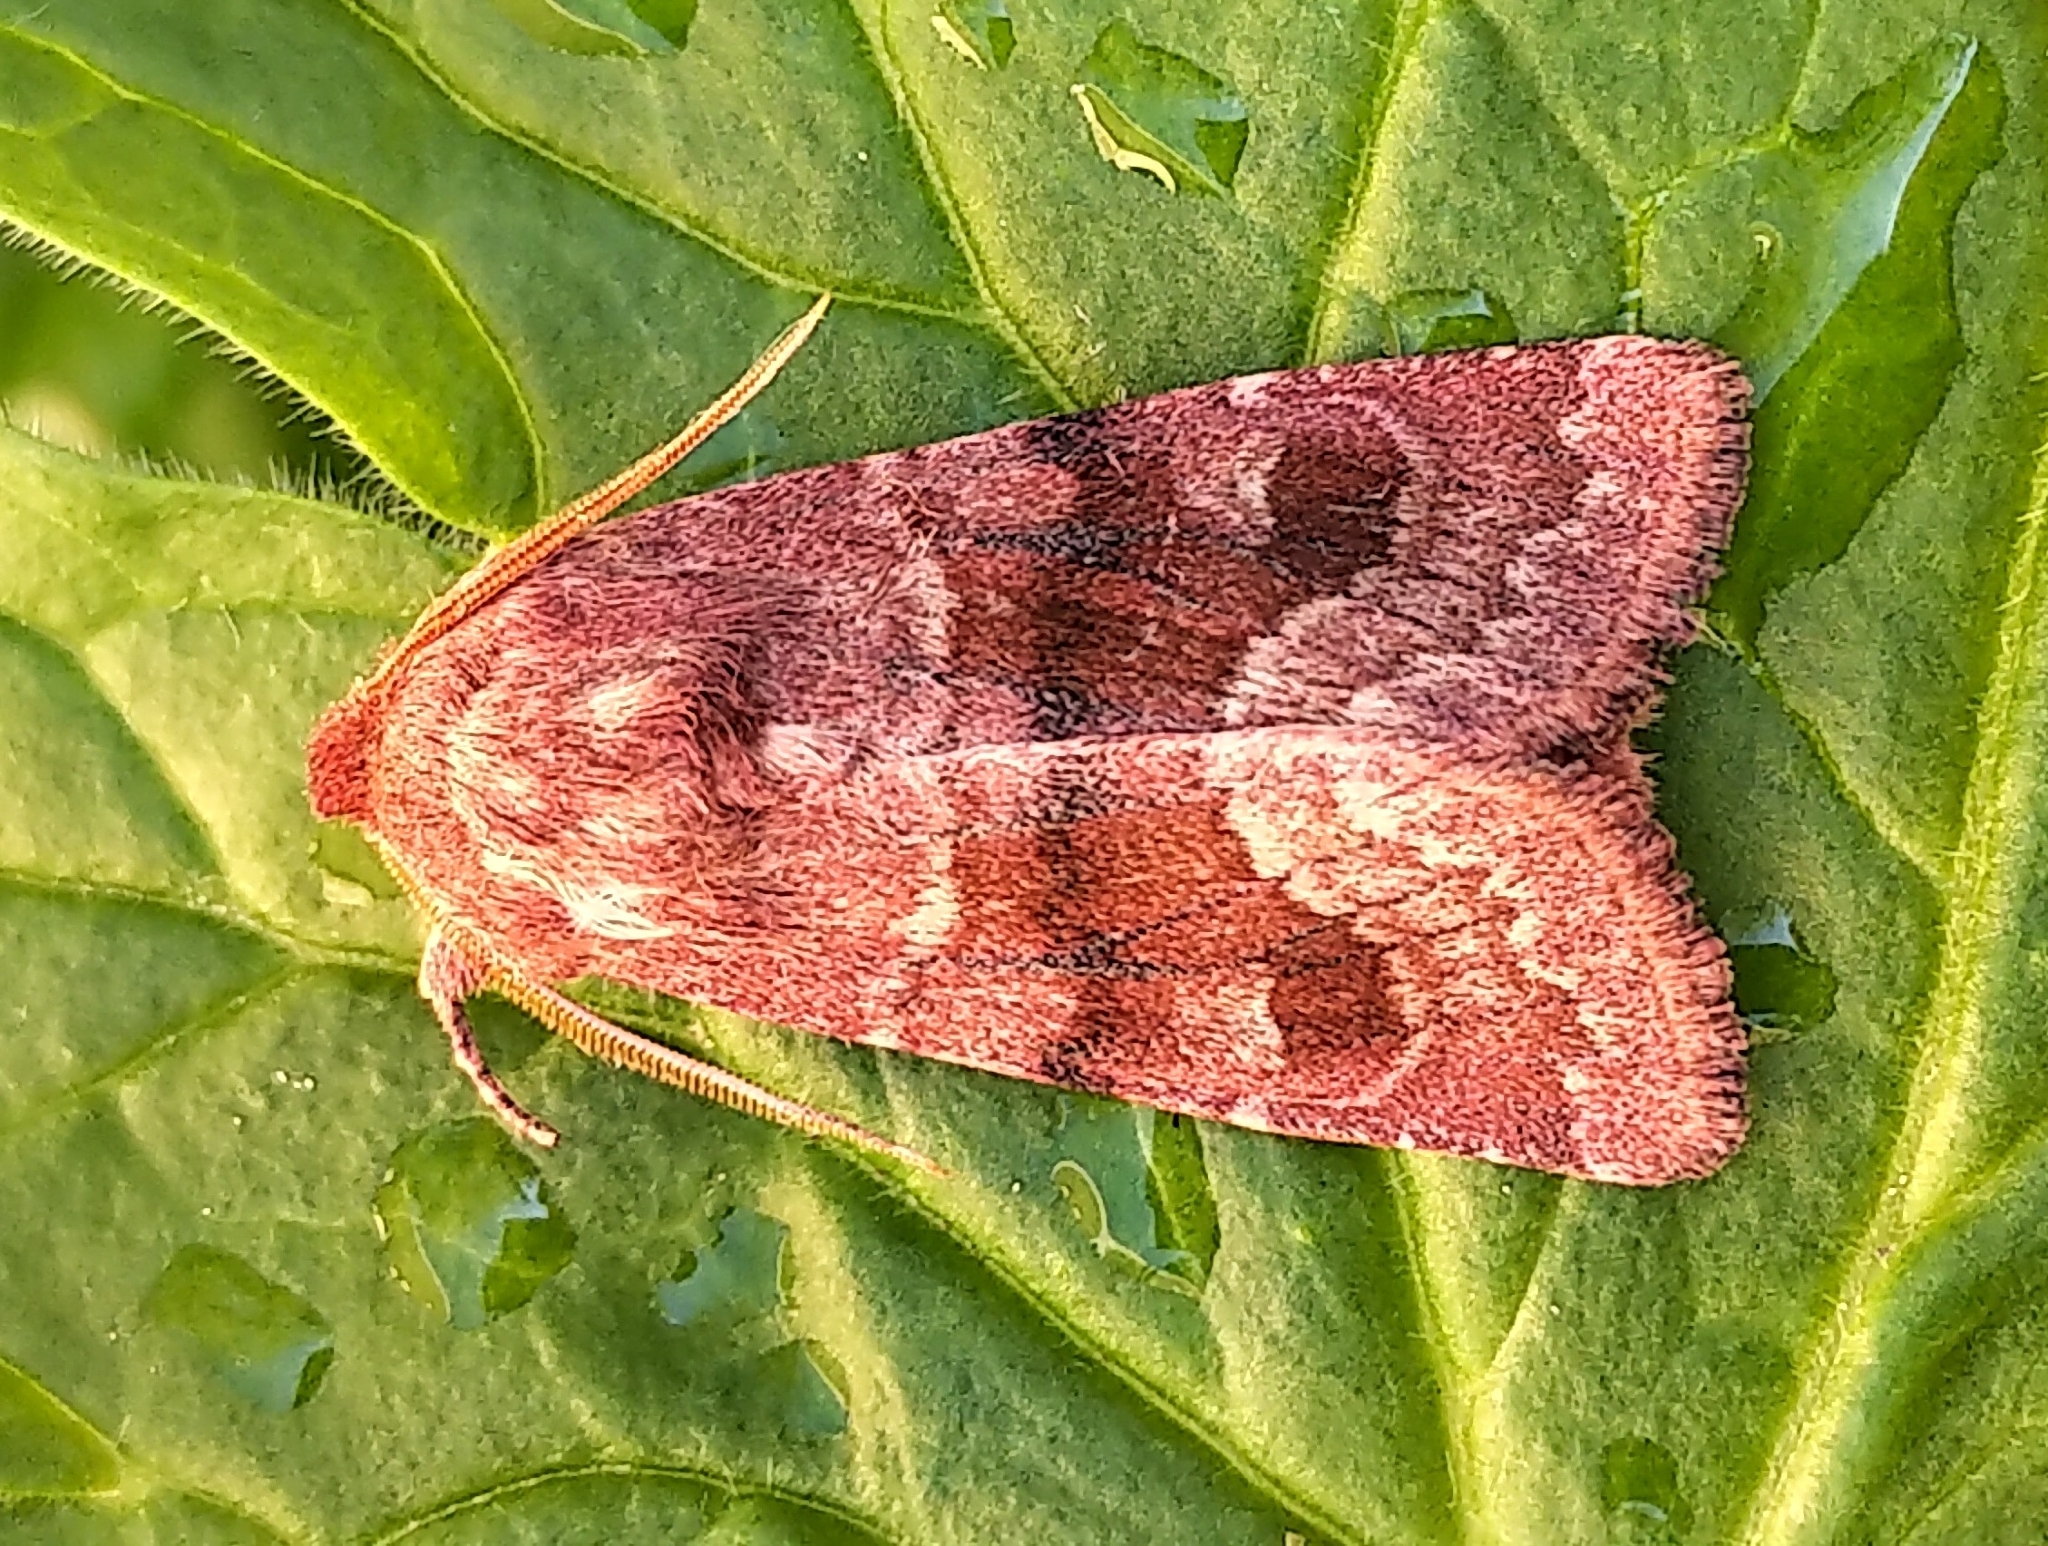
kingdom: Animalia
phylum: Arthropoda
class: Insecta
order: Lepidoptera
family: Noctuidae
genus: Nephelodes
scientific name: Nephelodes minians
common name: Bronzed cutworm
